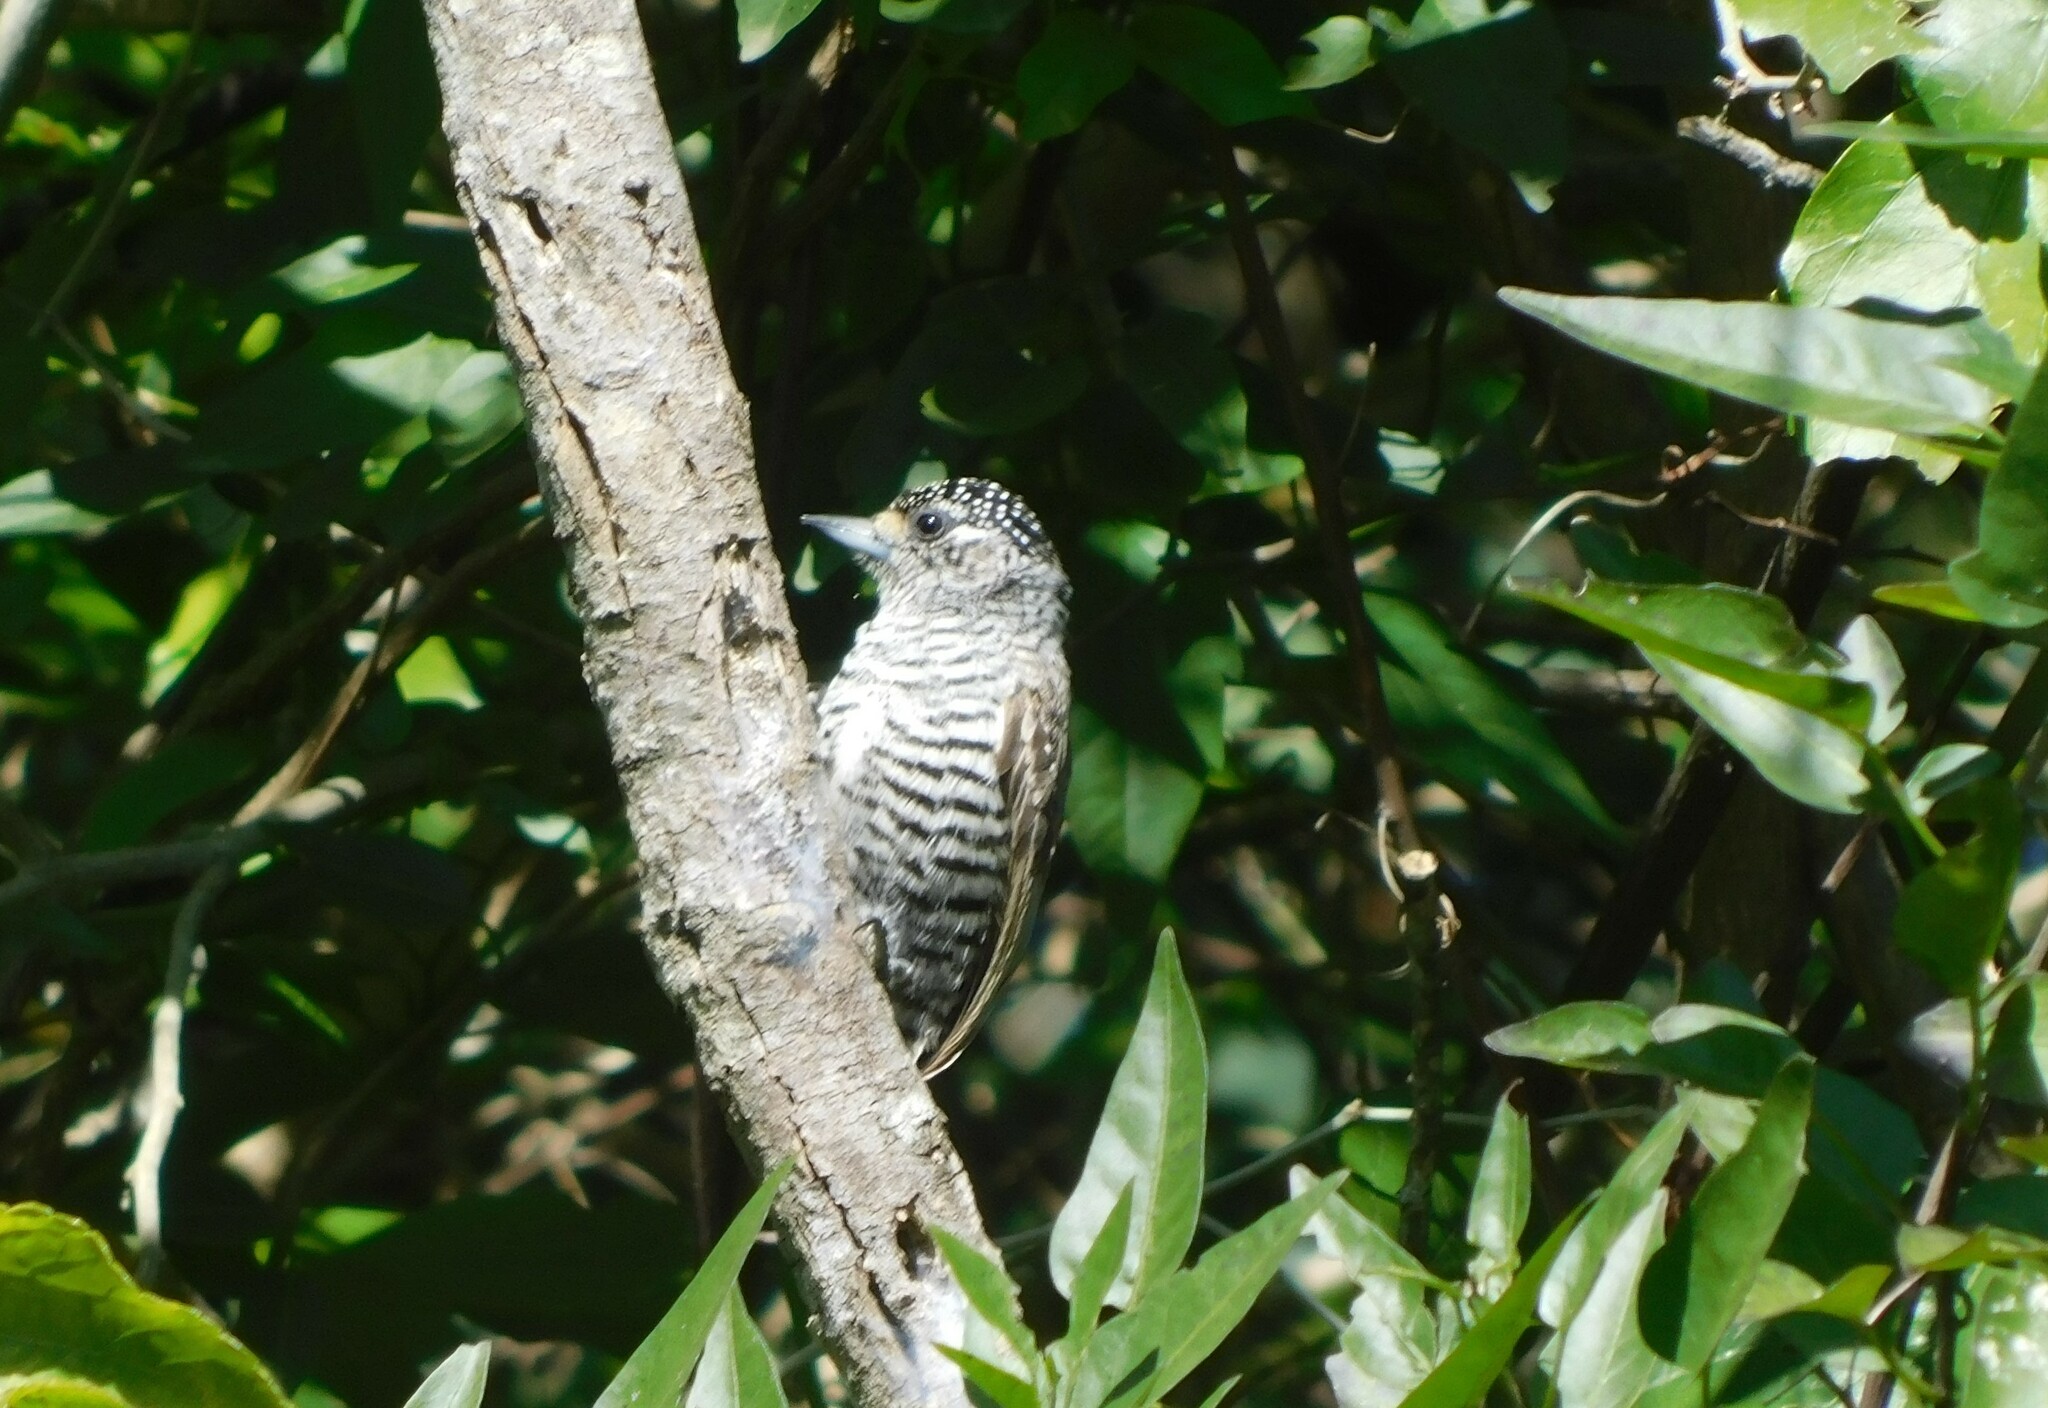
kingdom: Animalia
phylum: Chordata
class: Aves
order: Piciformes
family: Picidae
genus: Picumnus
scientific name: Picumnus cirratus
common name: White-barred piculet
